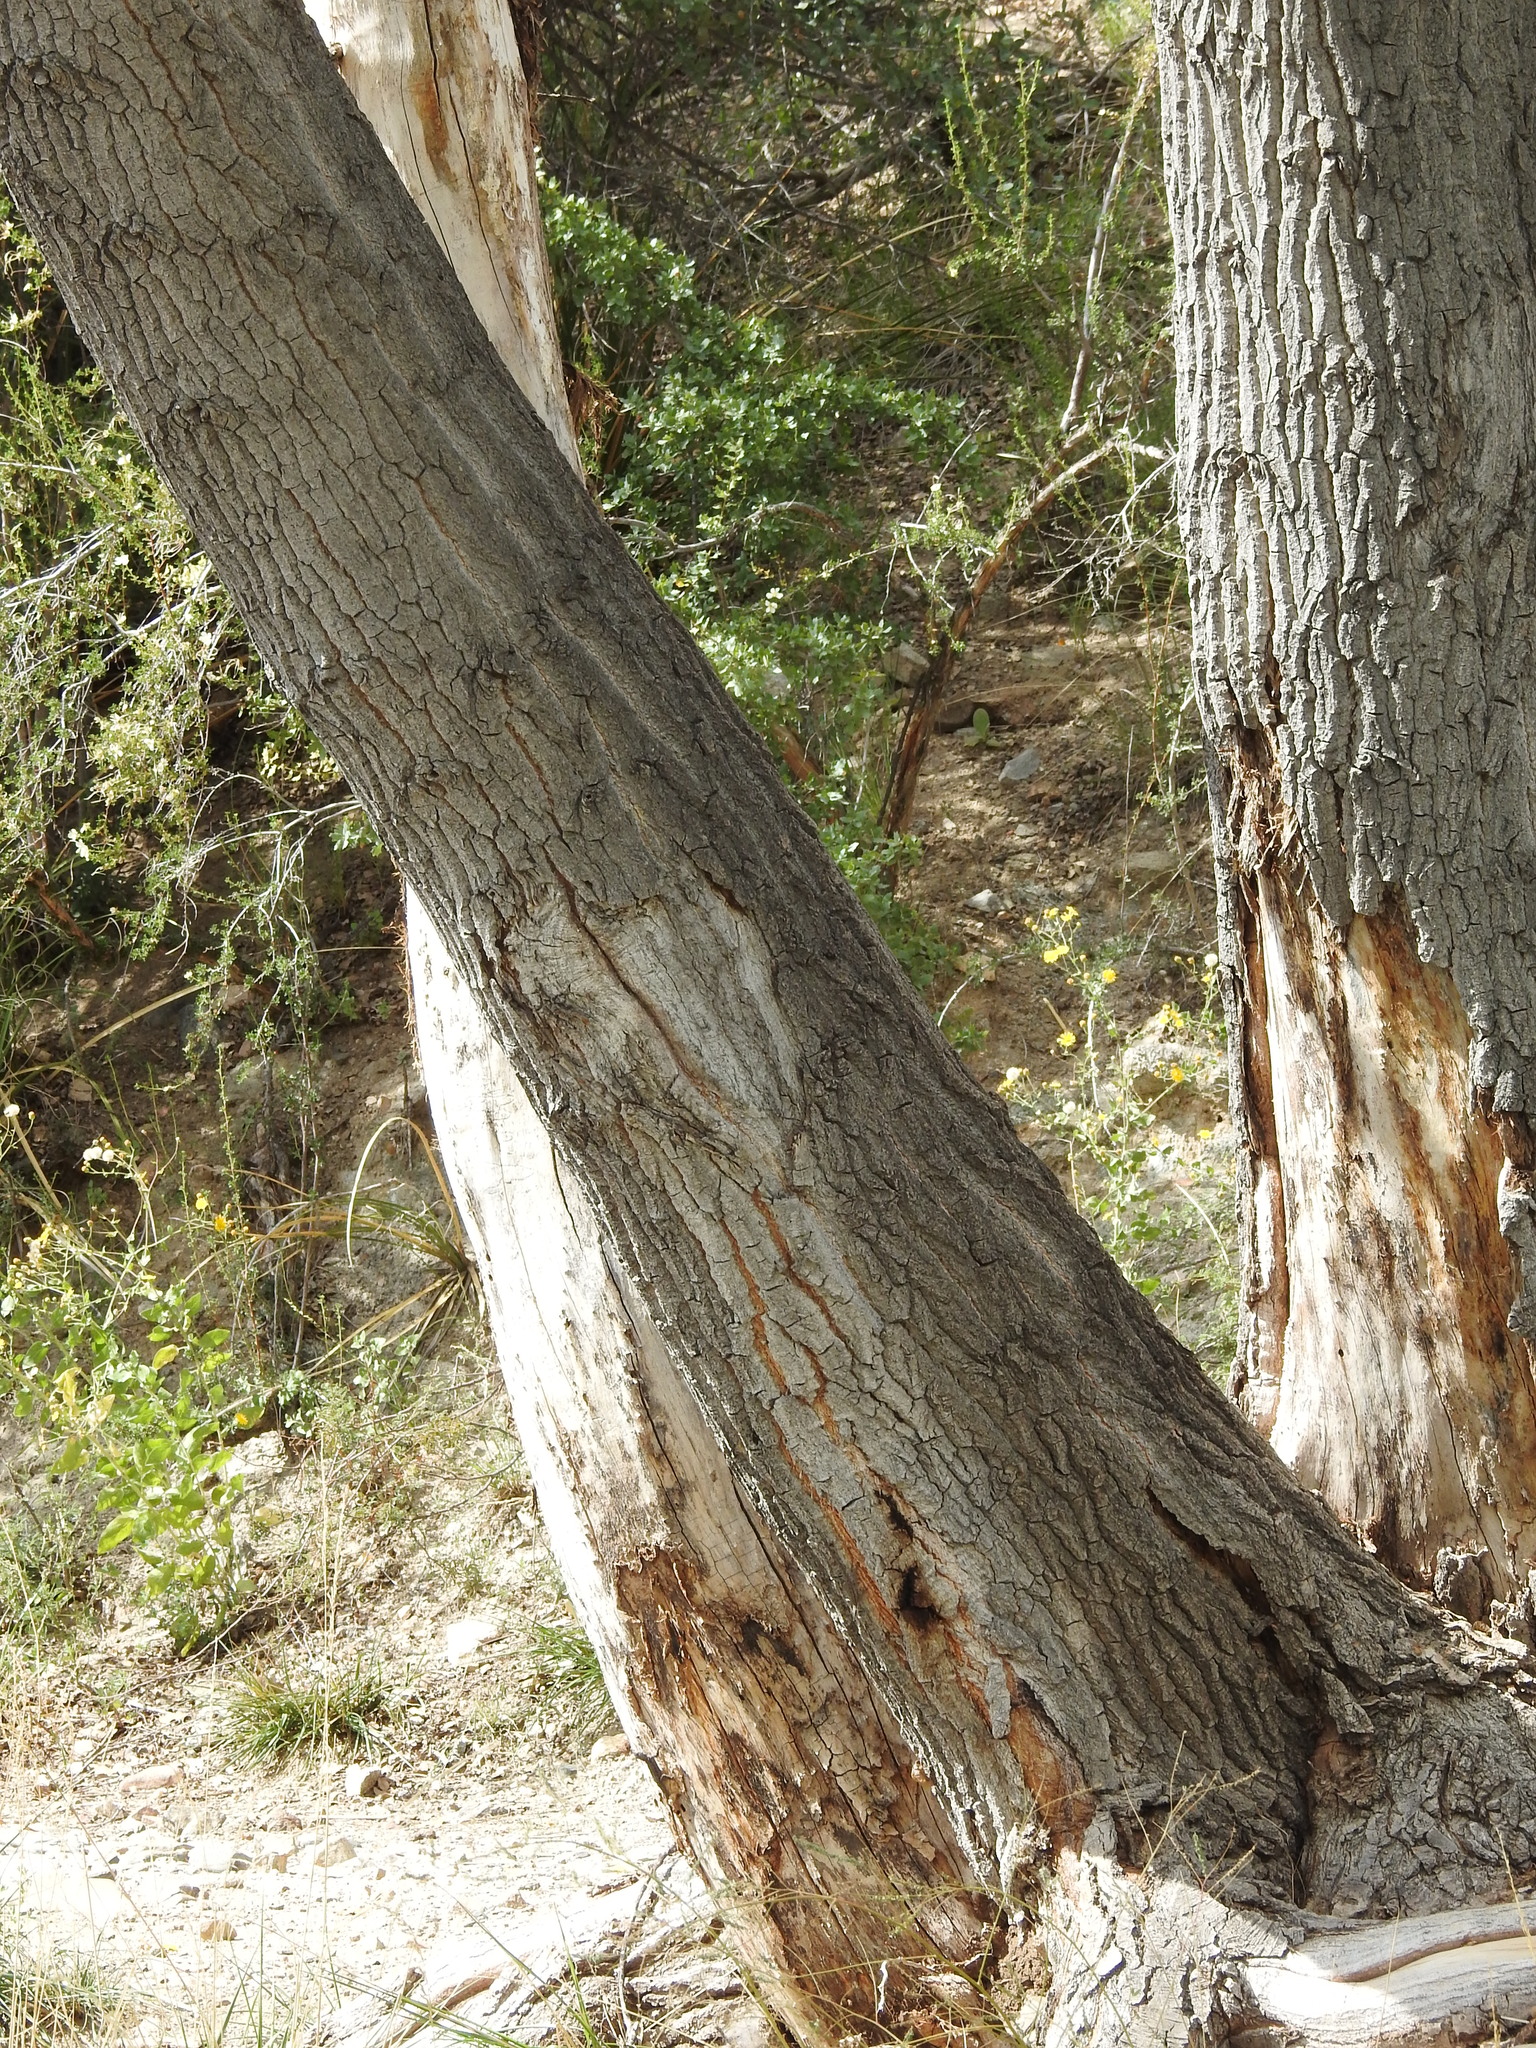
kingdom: Plantae
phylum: Tracheophyta
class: Magnoliopsida
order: Malpighiales
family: Salicaceae
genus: Populus
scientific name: Populus fremontii
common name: Fremont's cottonwood
